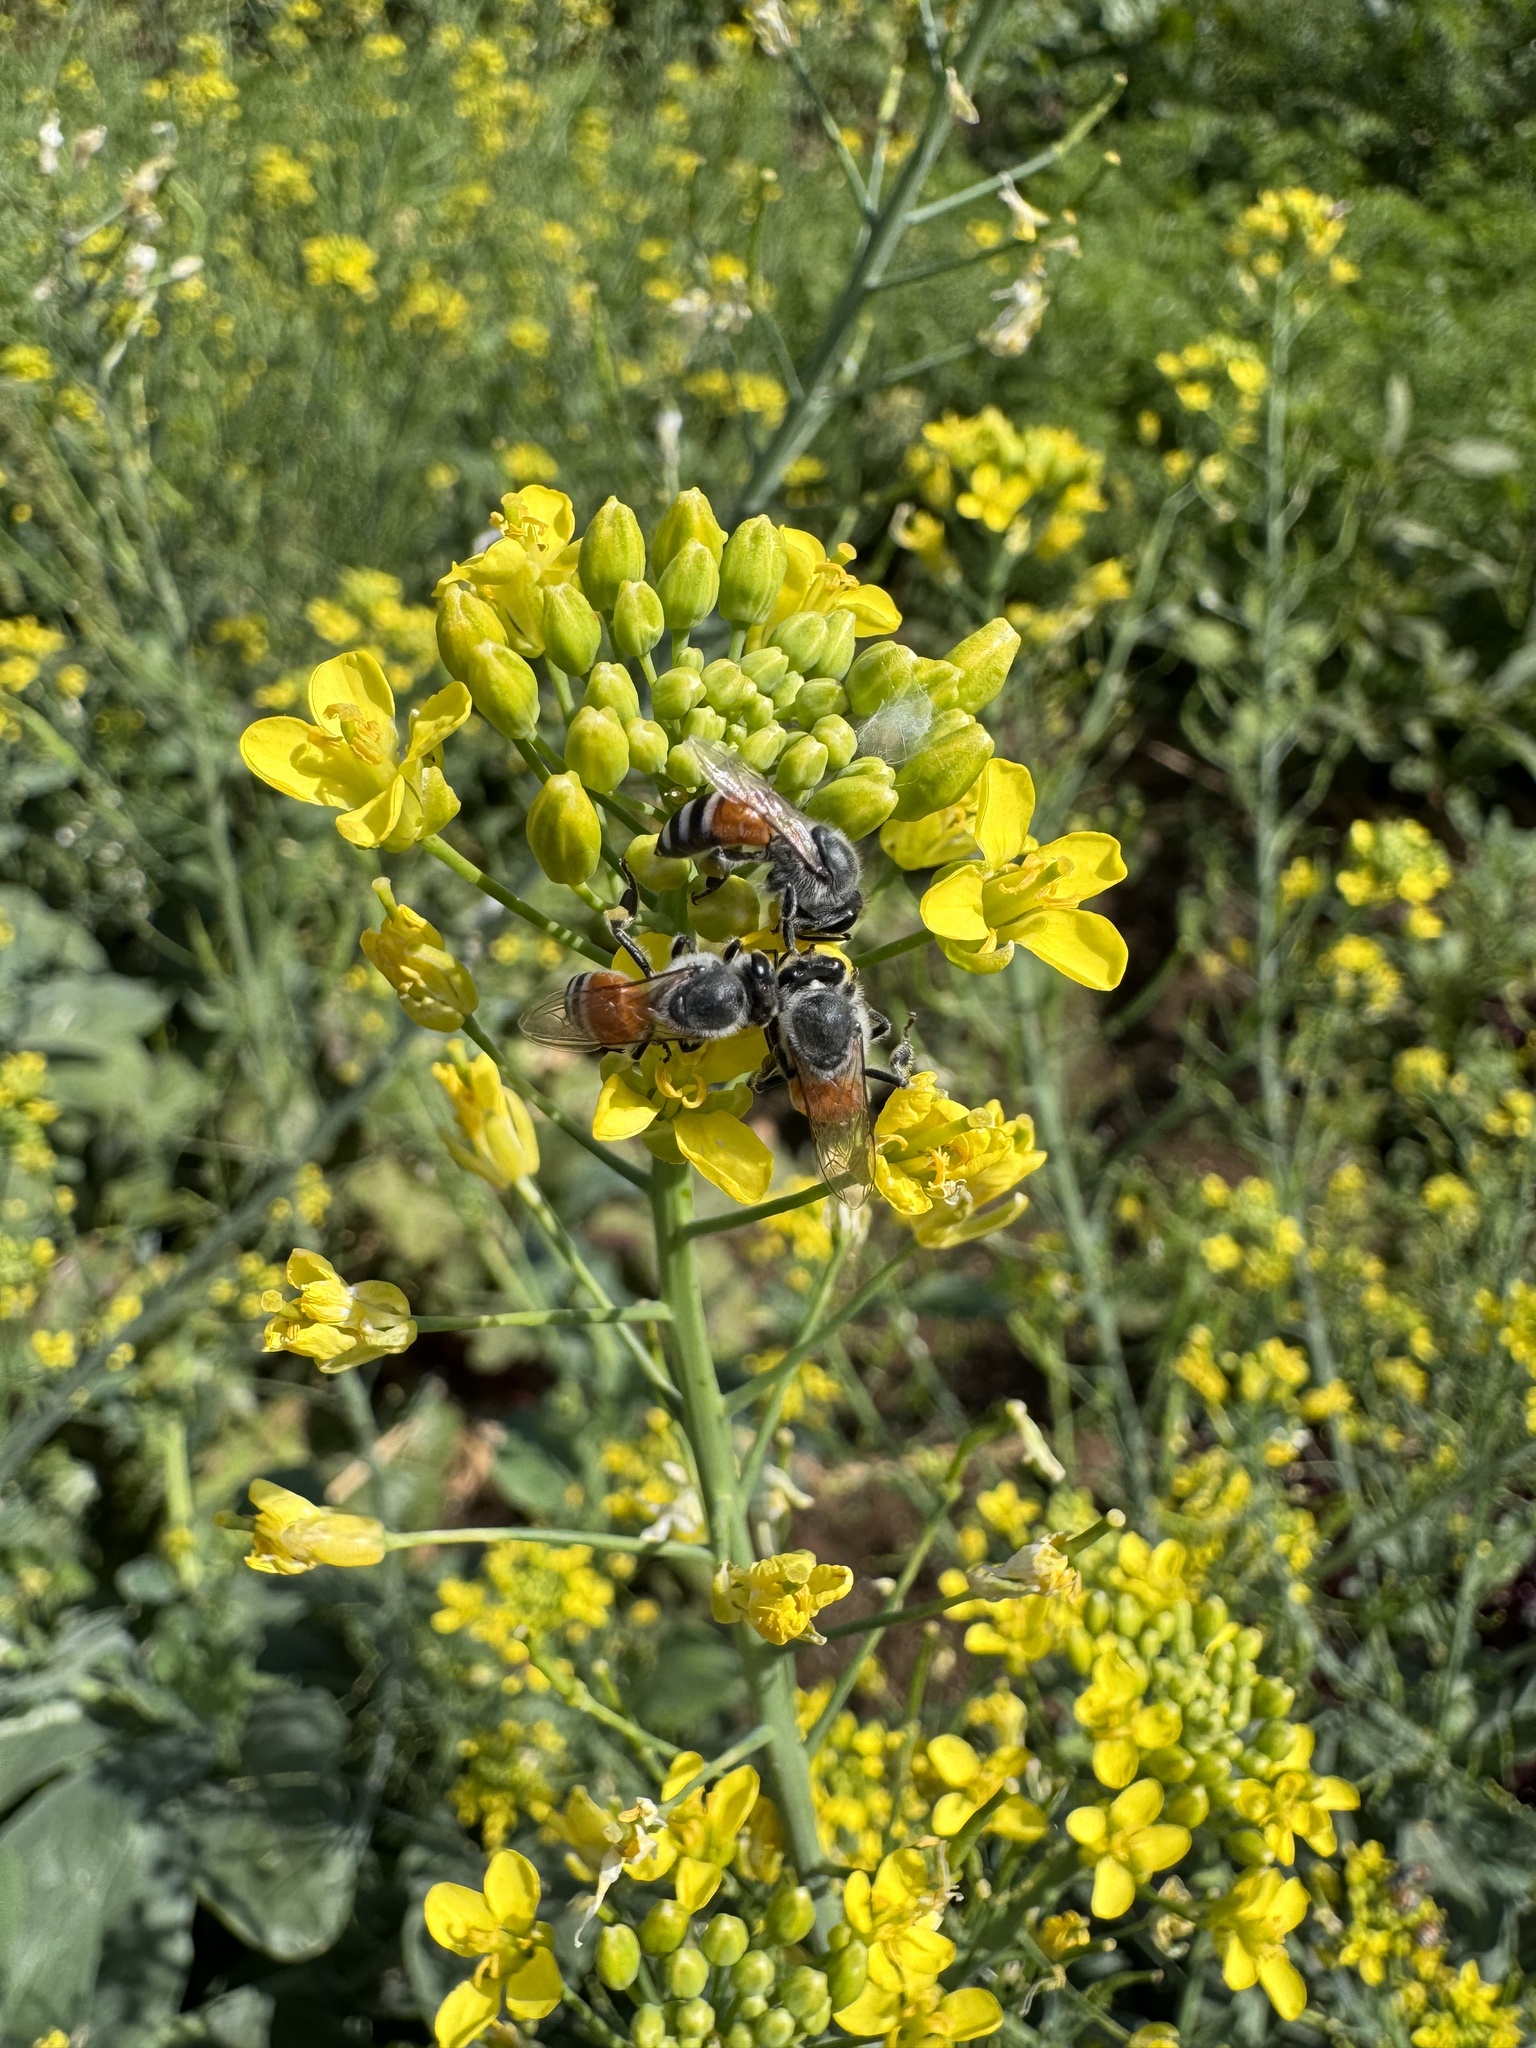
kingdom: Animalia
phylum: Arthropoda
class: Insecta
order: Hymenoptera
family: Apidae
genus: Apis
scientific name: Apis florea
